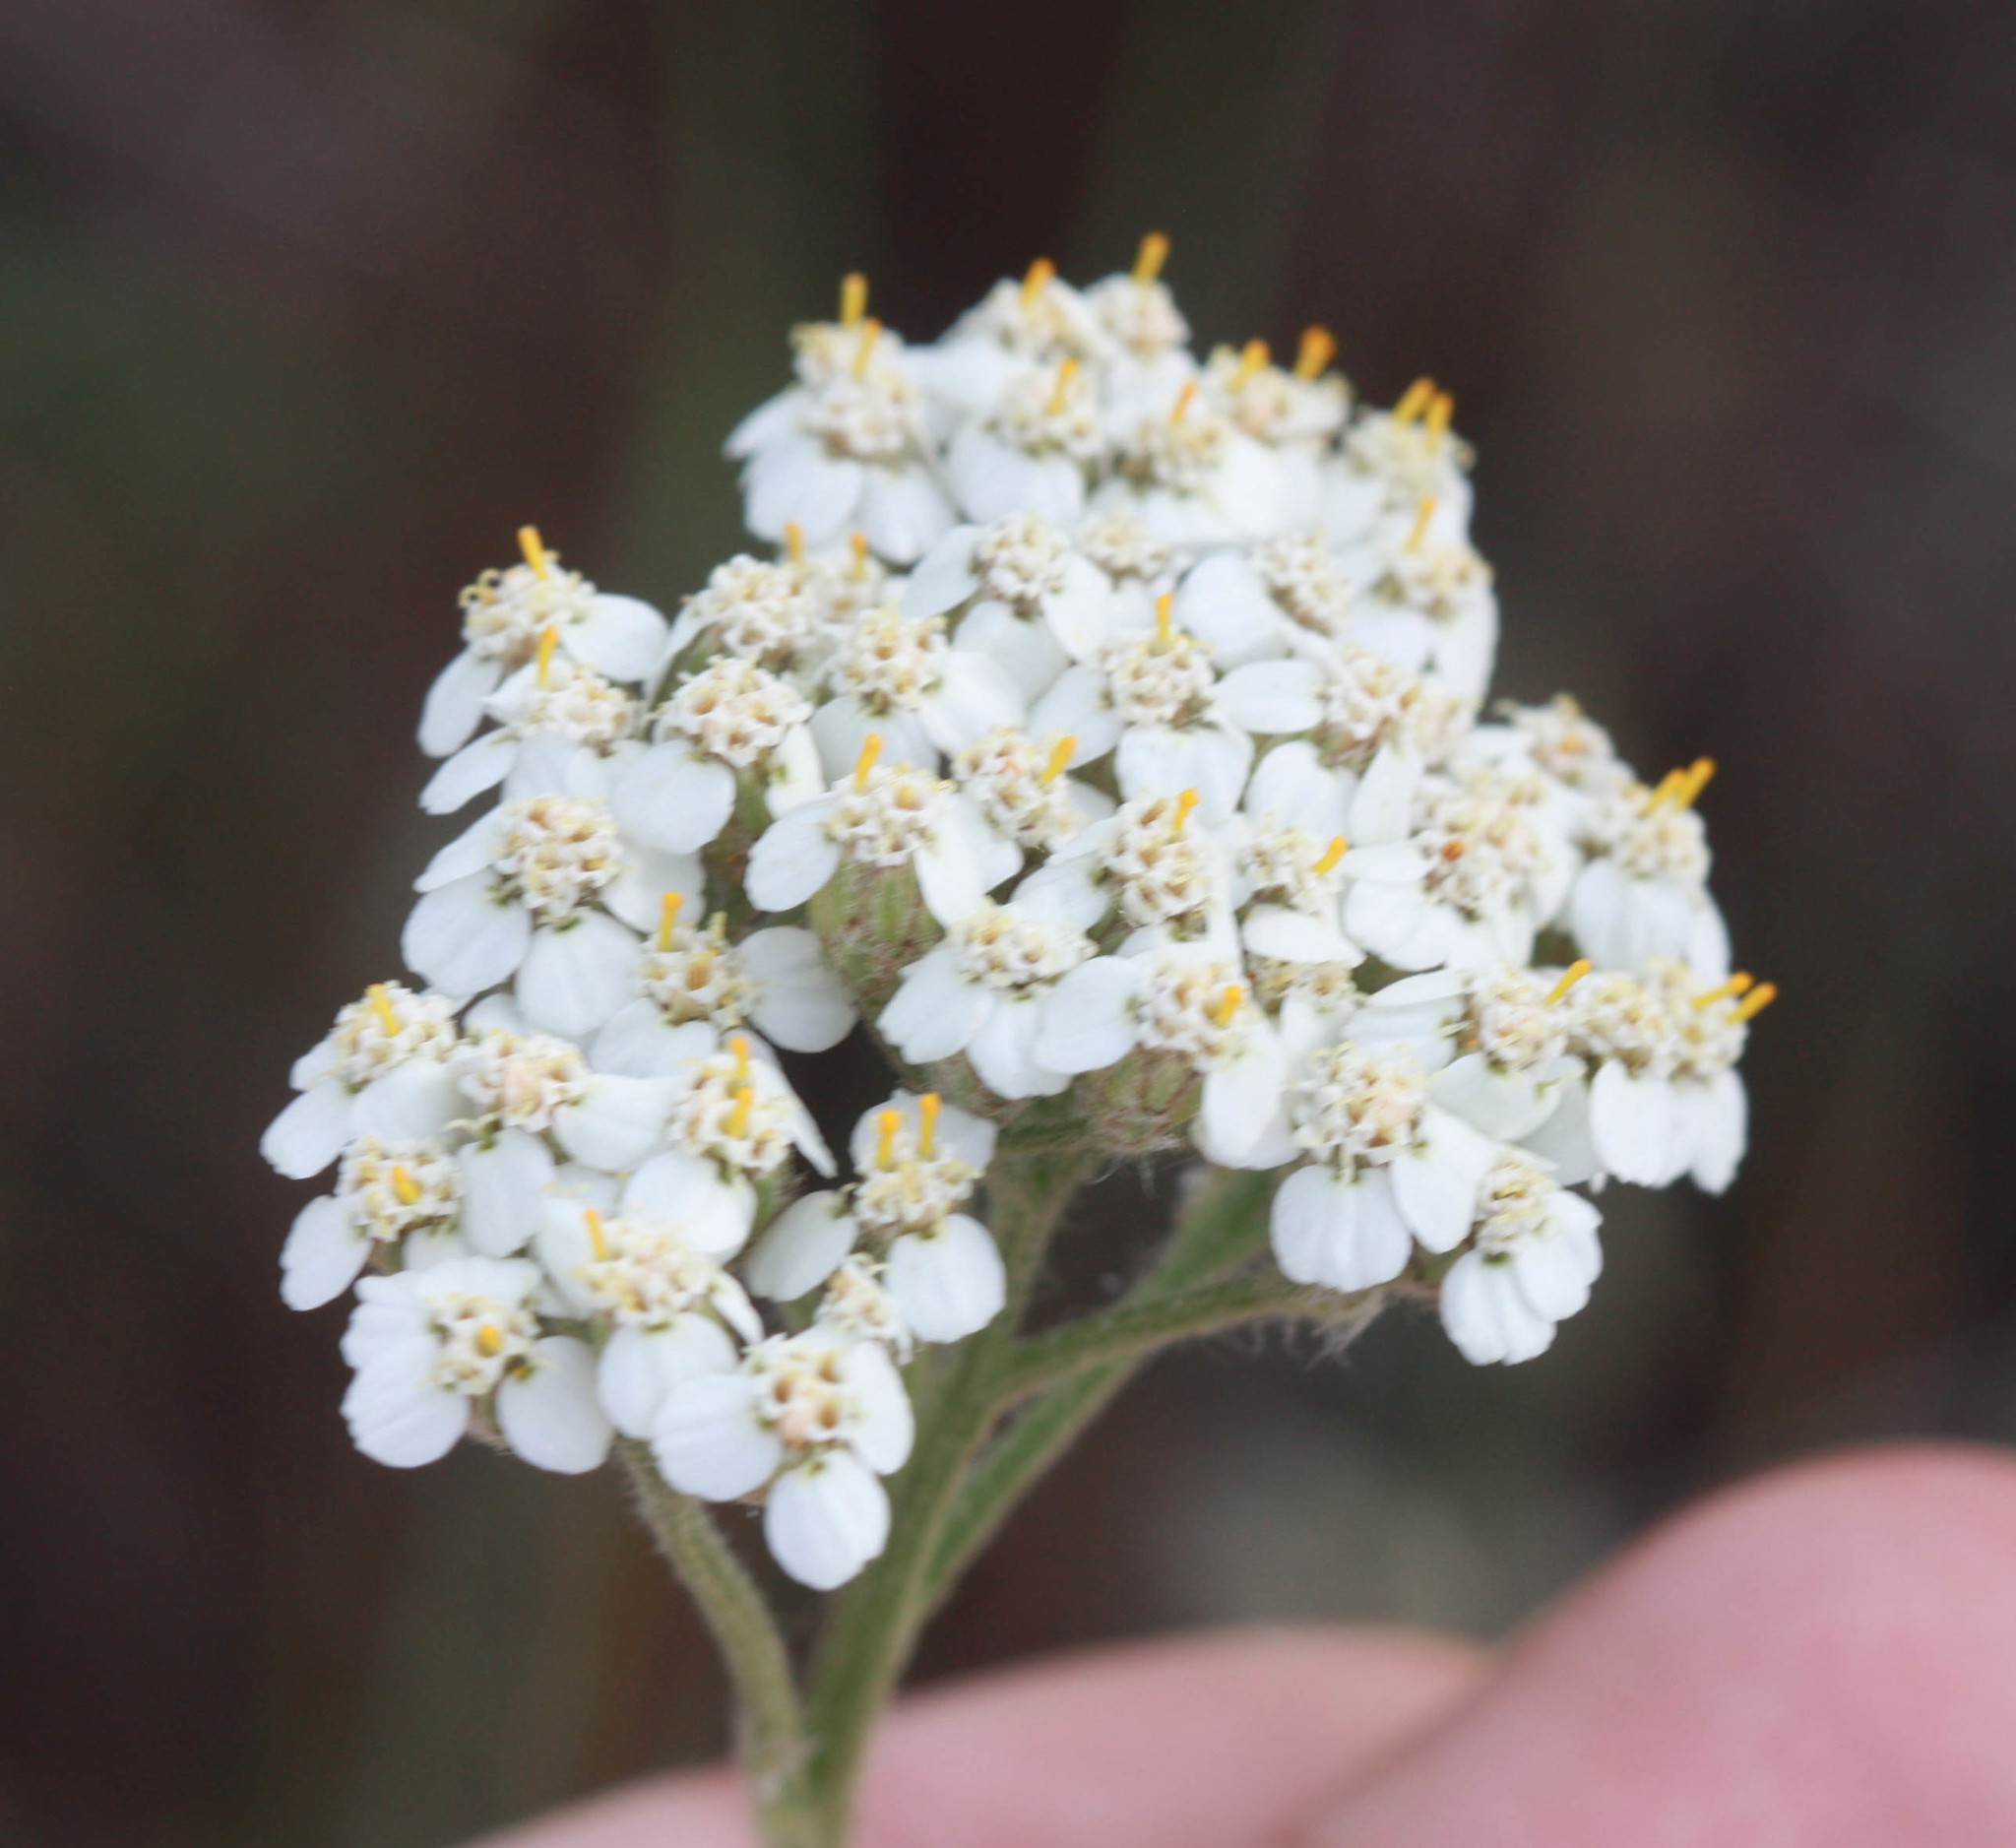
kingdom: Plantae
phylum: Tracheophyta
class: Magnoliopsida
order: Asterales
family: Asteraceae
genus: Achillea
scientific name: Achillea millefolium
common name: Yarrow
